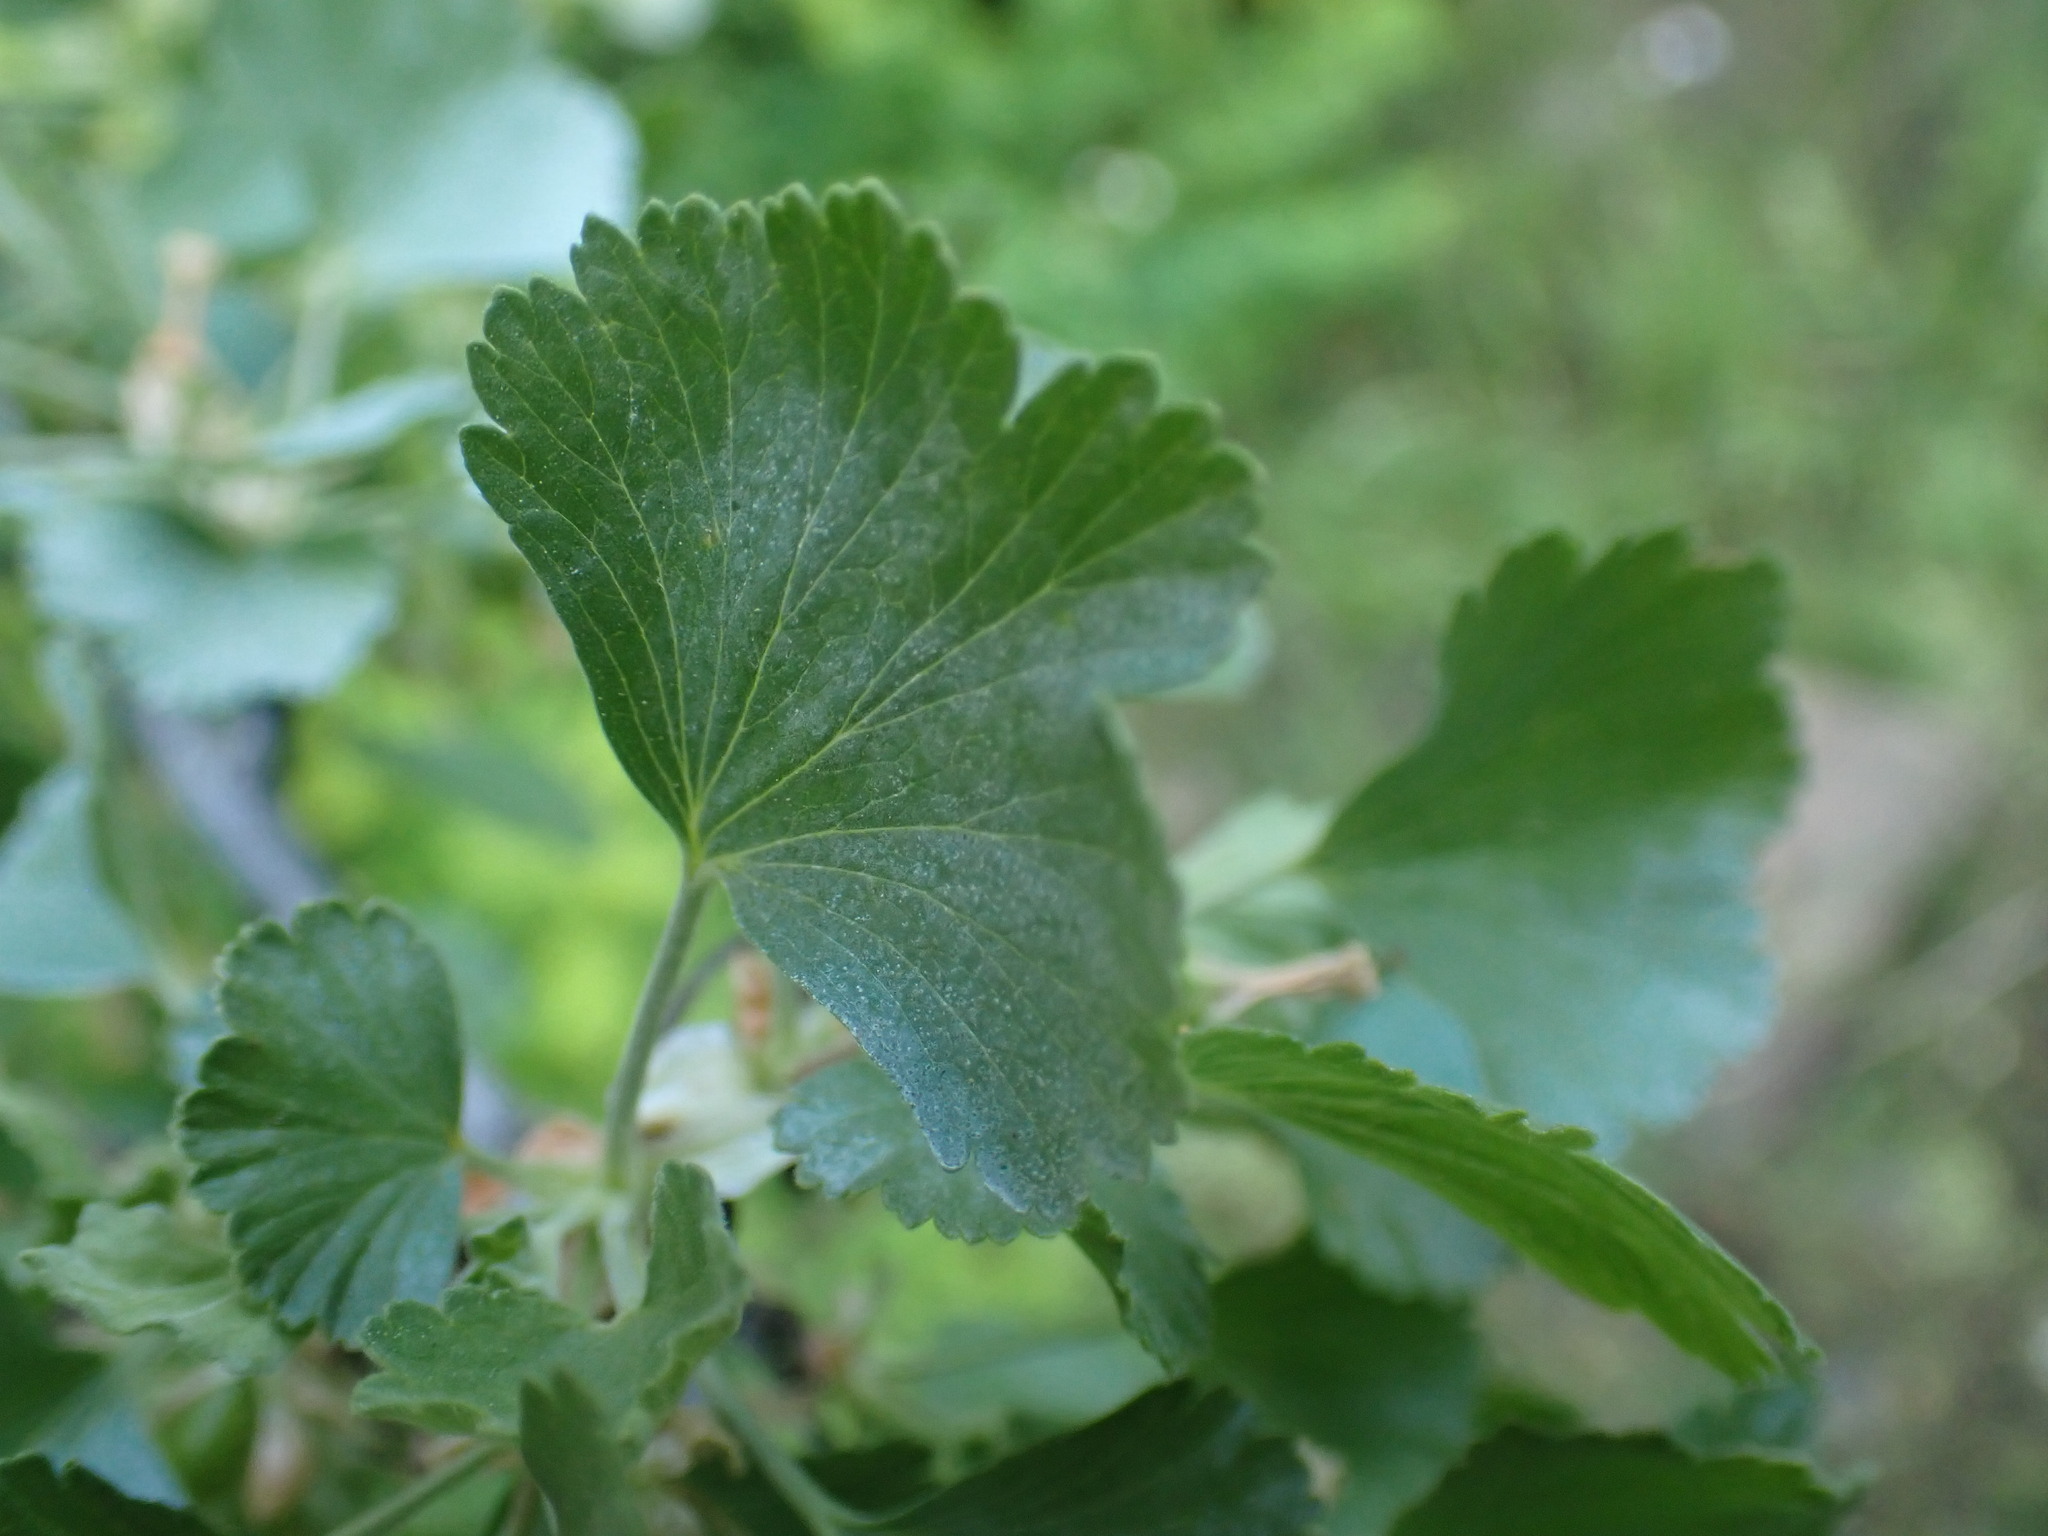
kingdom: Plantae
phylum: Tracheophyta
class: Magnoliopsida
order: Saxifragales
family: Grossulariaceae
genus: Ribes
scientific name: Ribes cereum
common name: Wax currant
